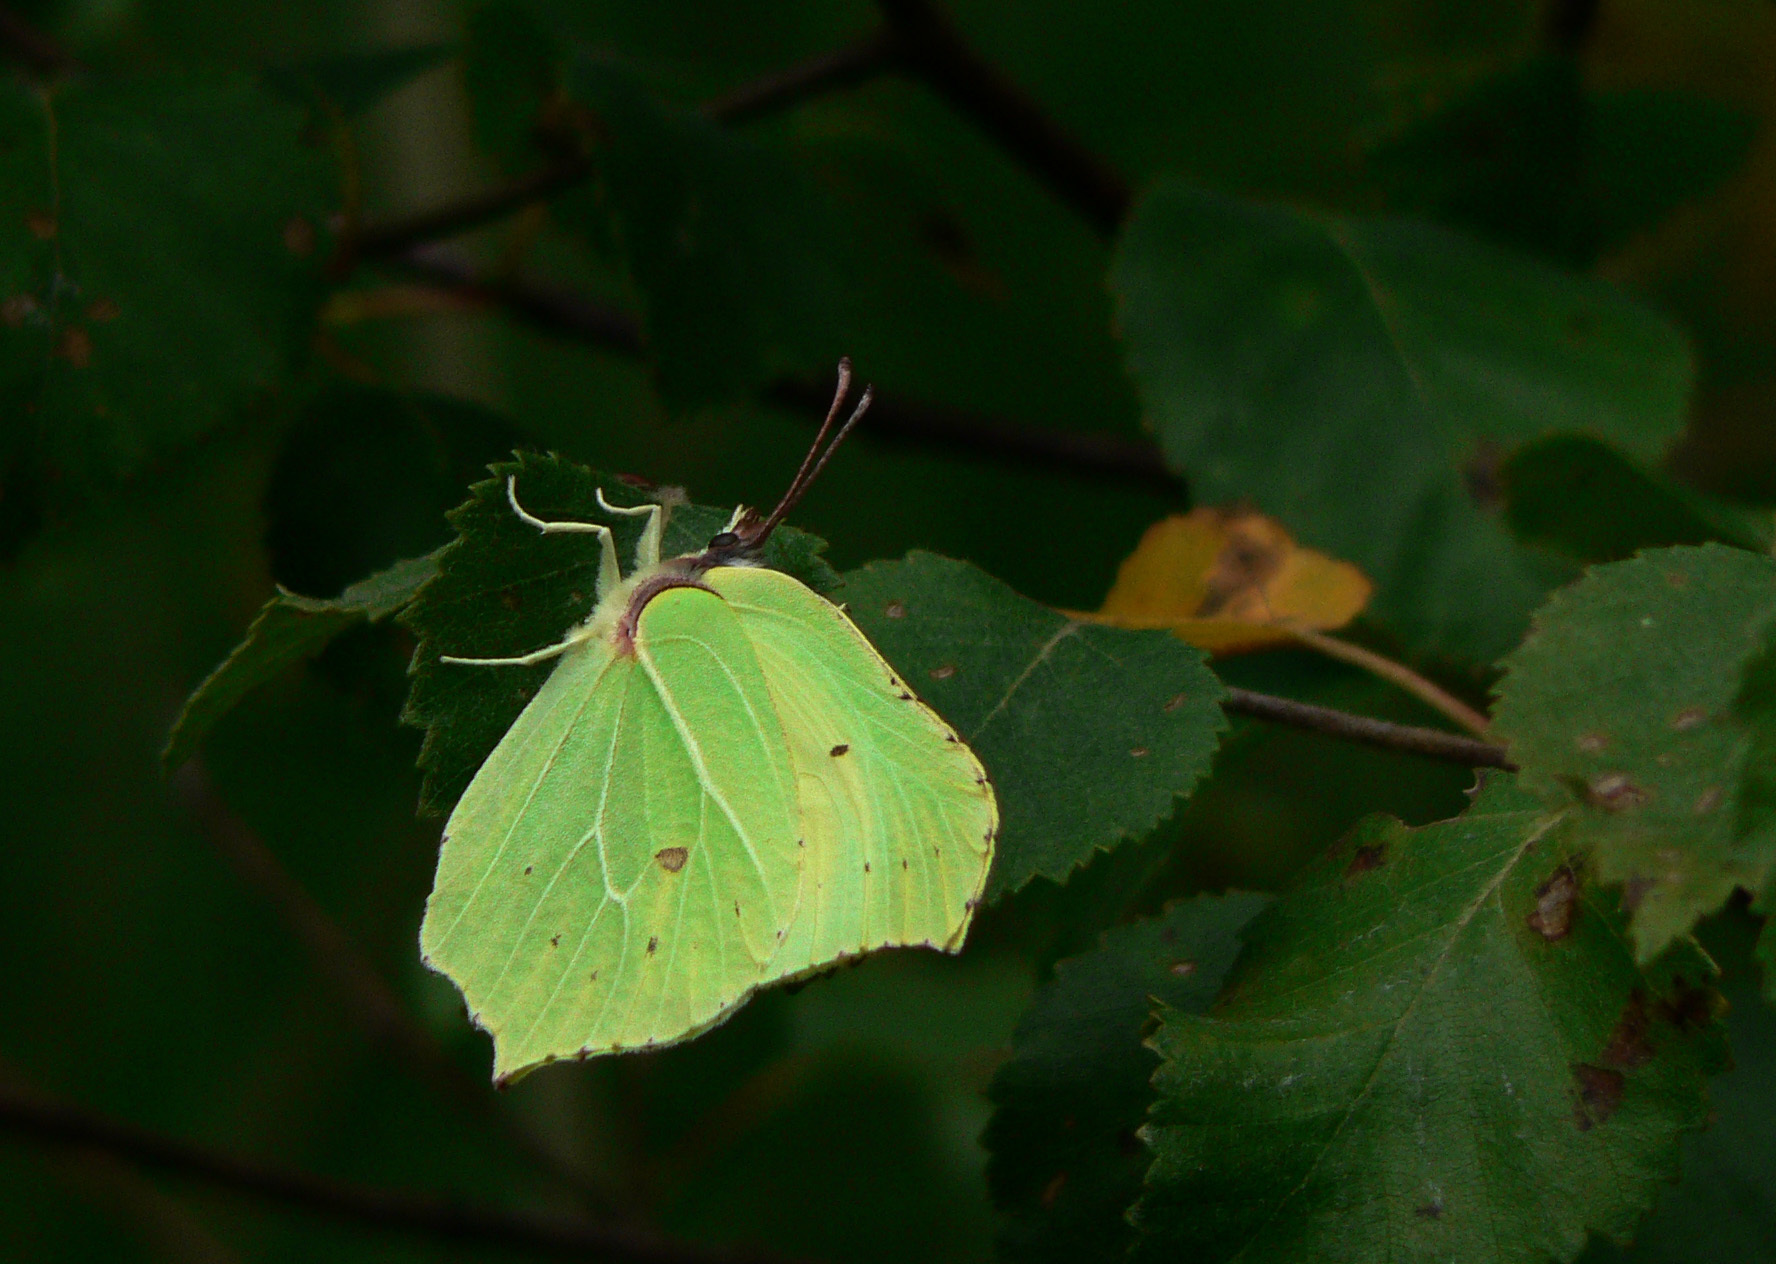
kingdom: Animalia
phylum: Arthropoda
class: Insecta
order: Lepidoptera
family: Pieridae
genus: Gonepteryx
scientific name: Gonepteryx rhamni
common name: Brimstone
